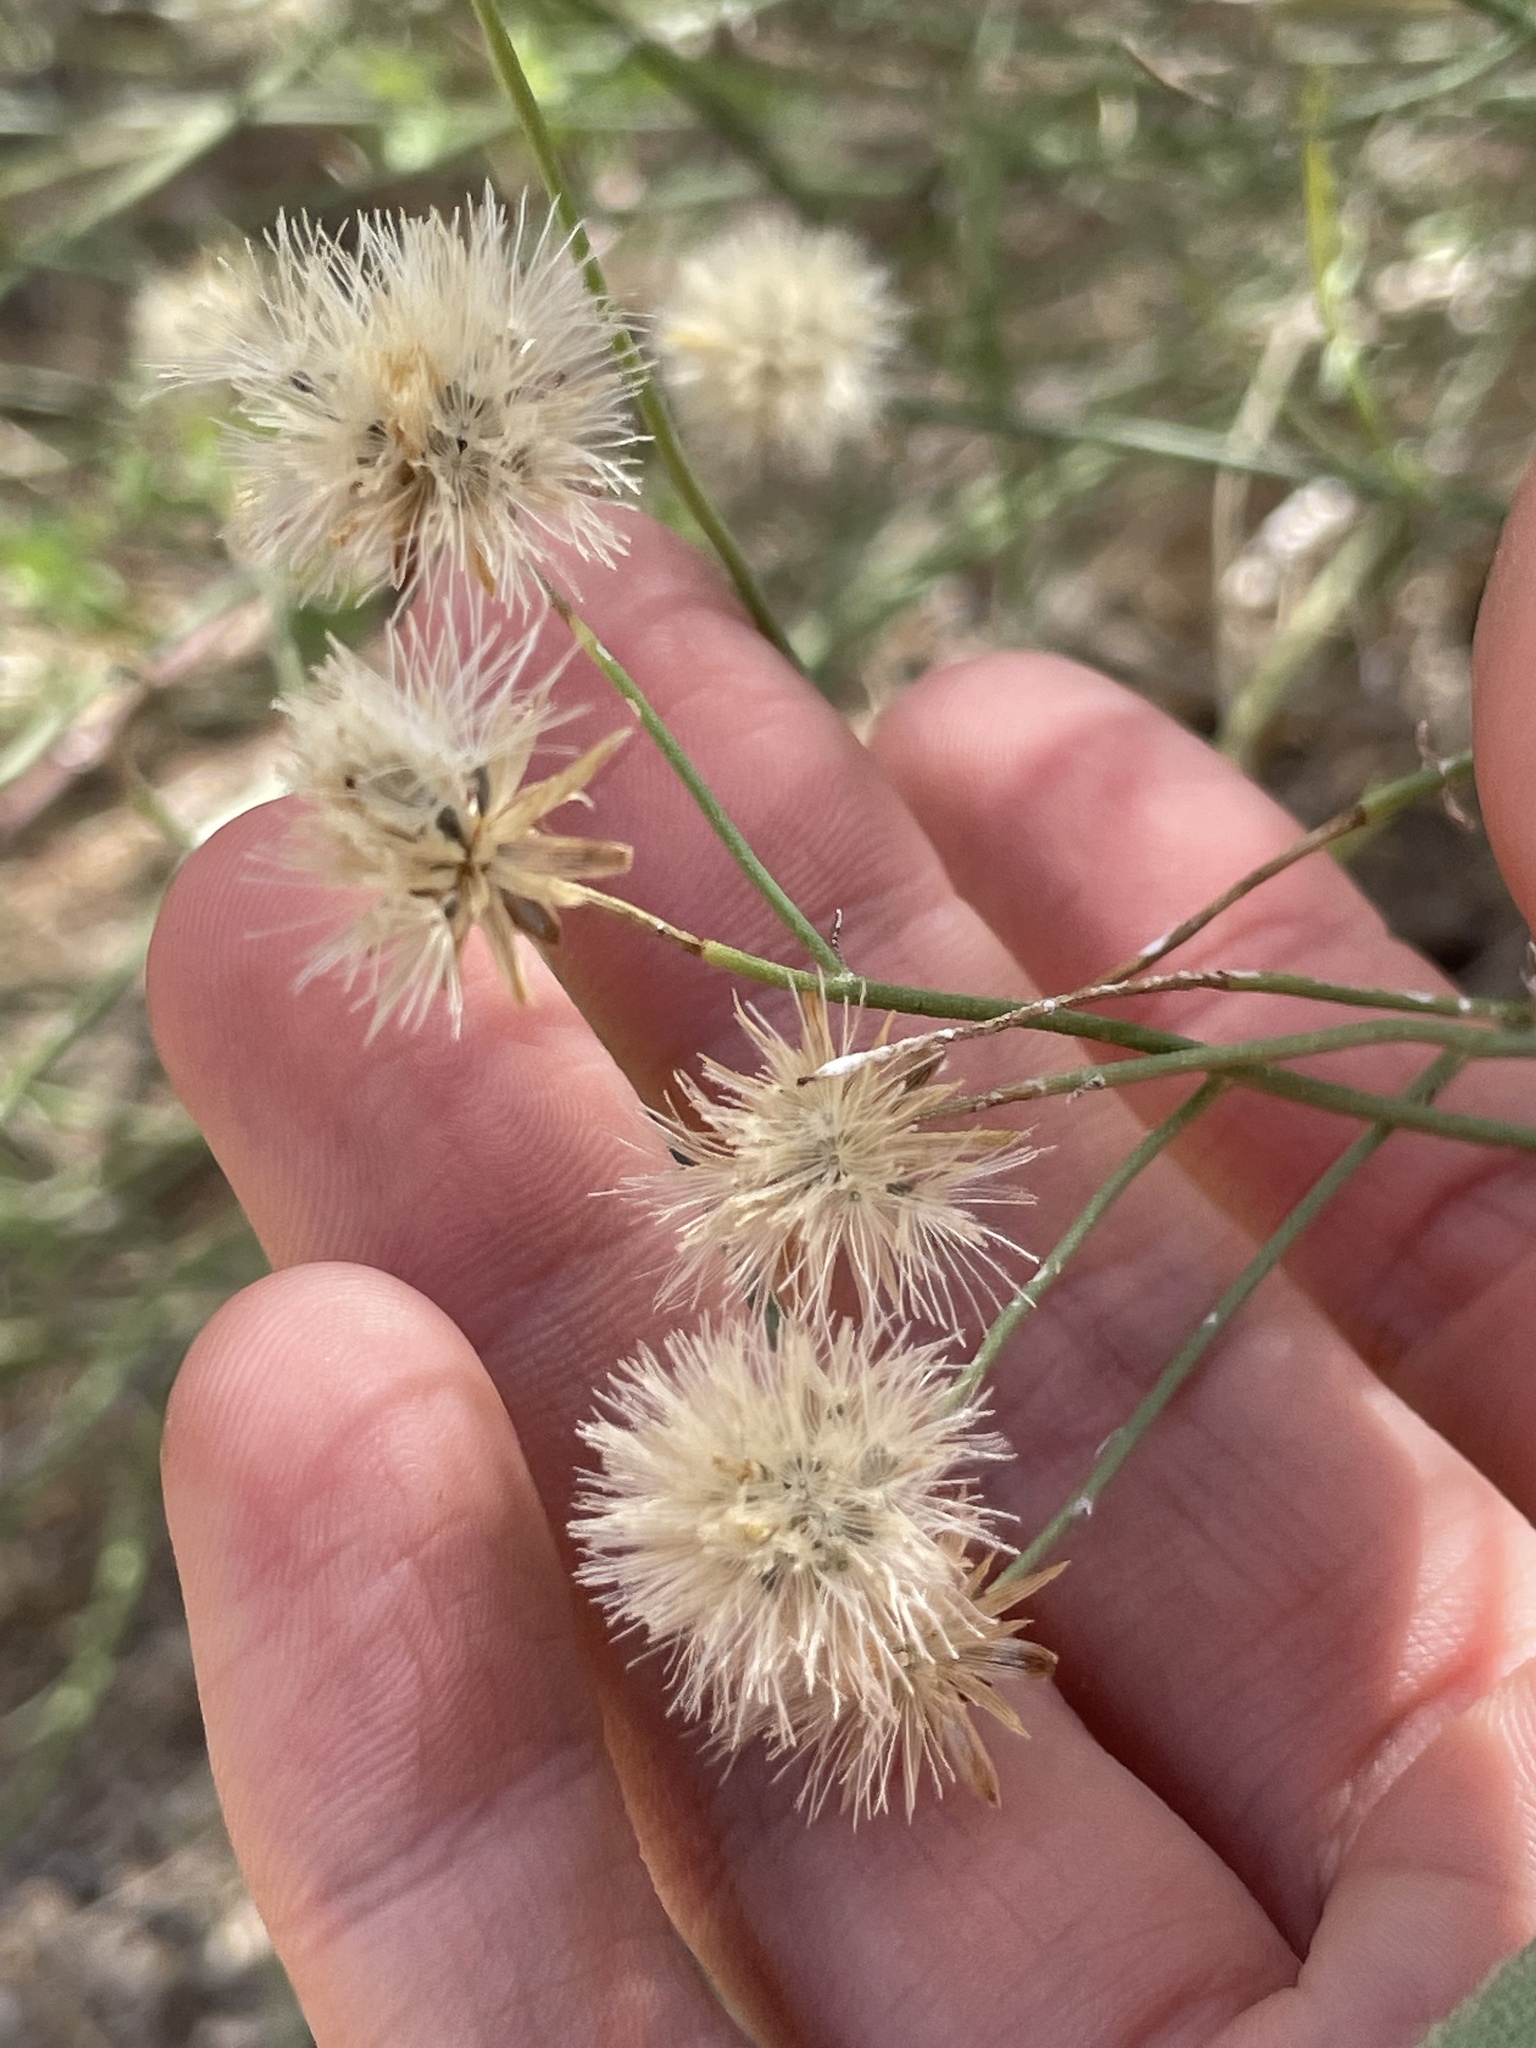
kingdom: Plantae
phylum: Tracheophyta
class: Magnoliopsida
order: Asterales
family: Asteraceae
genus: Bebbia
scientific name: Bebbia juncea
